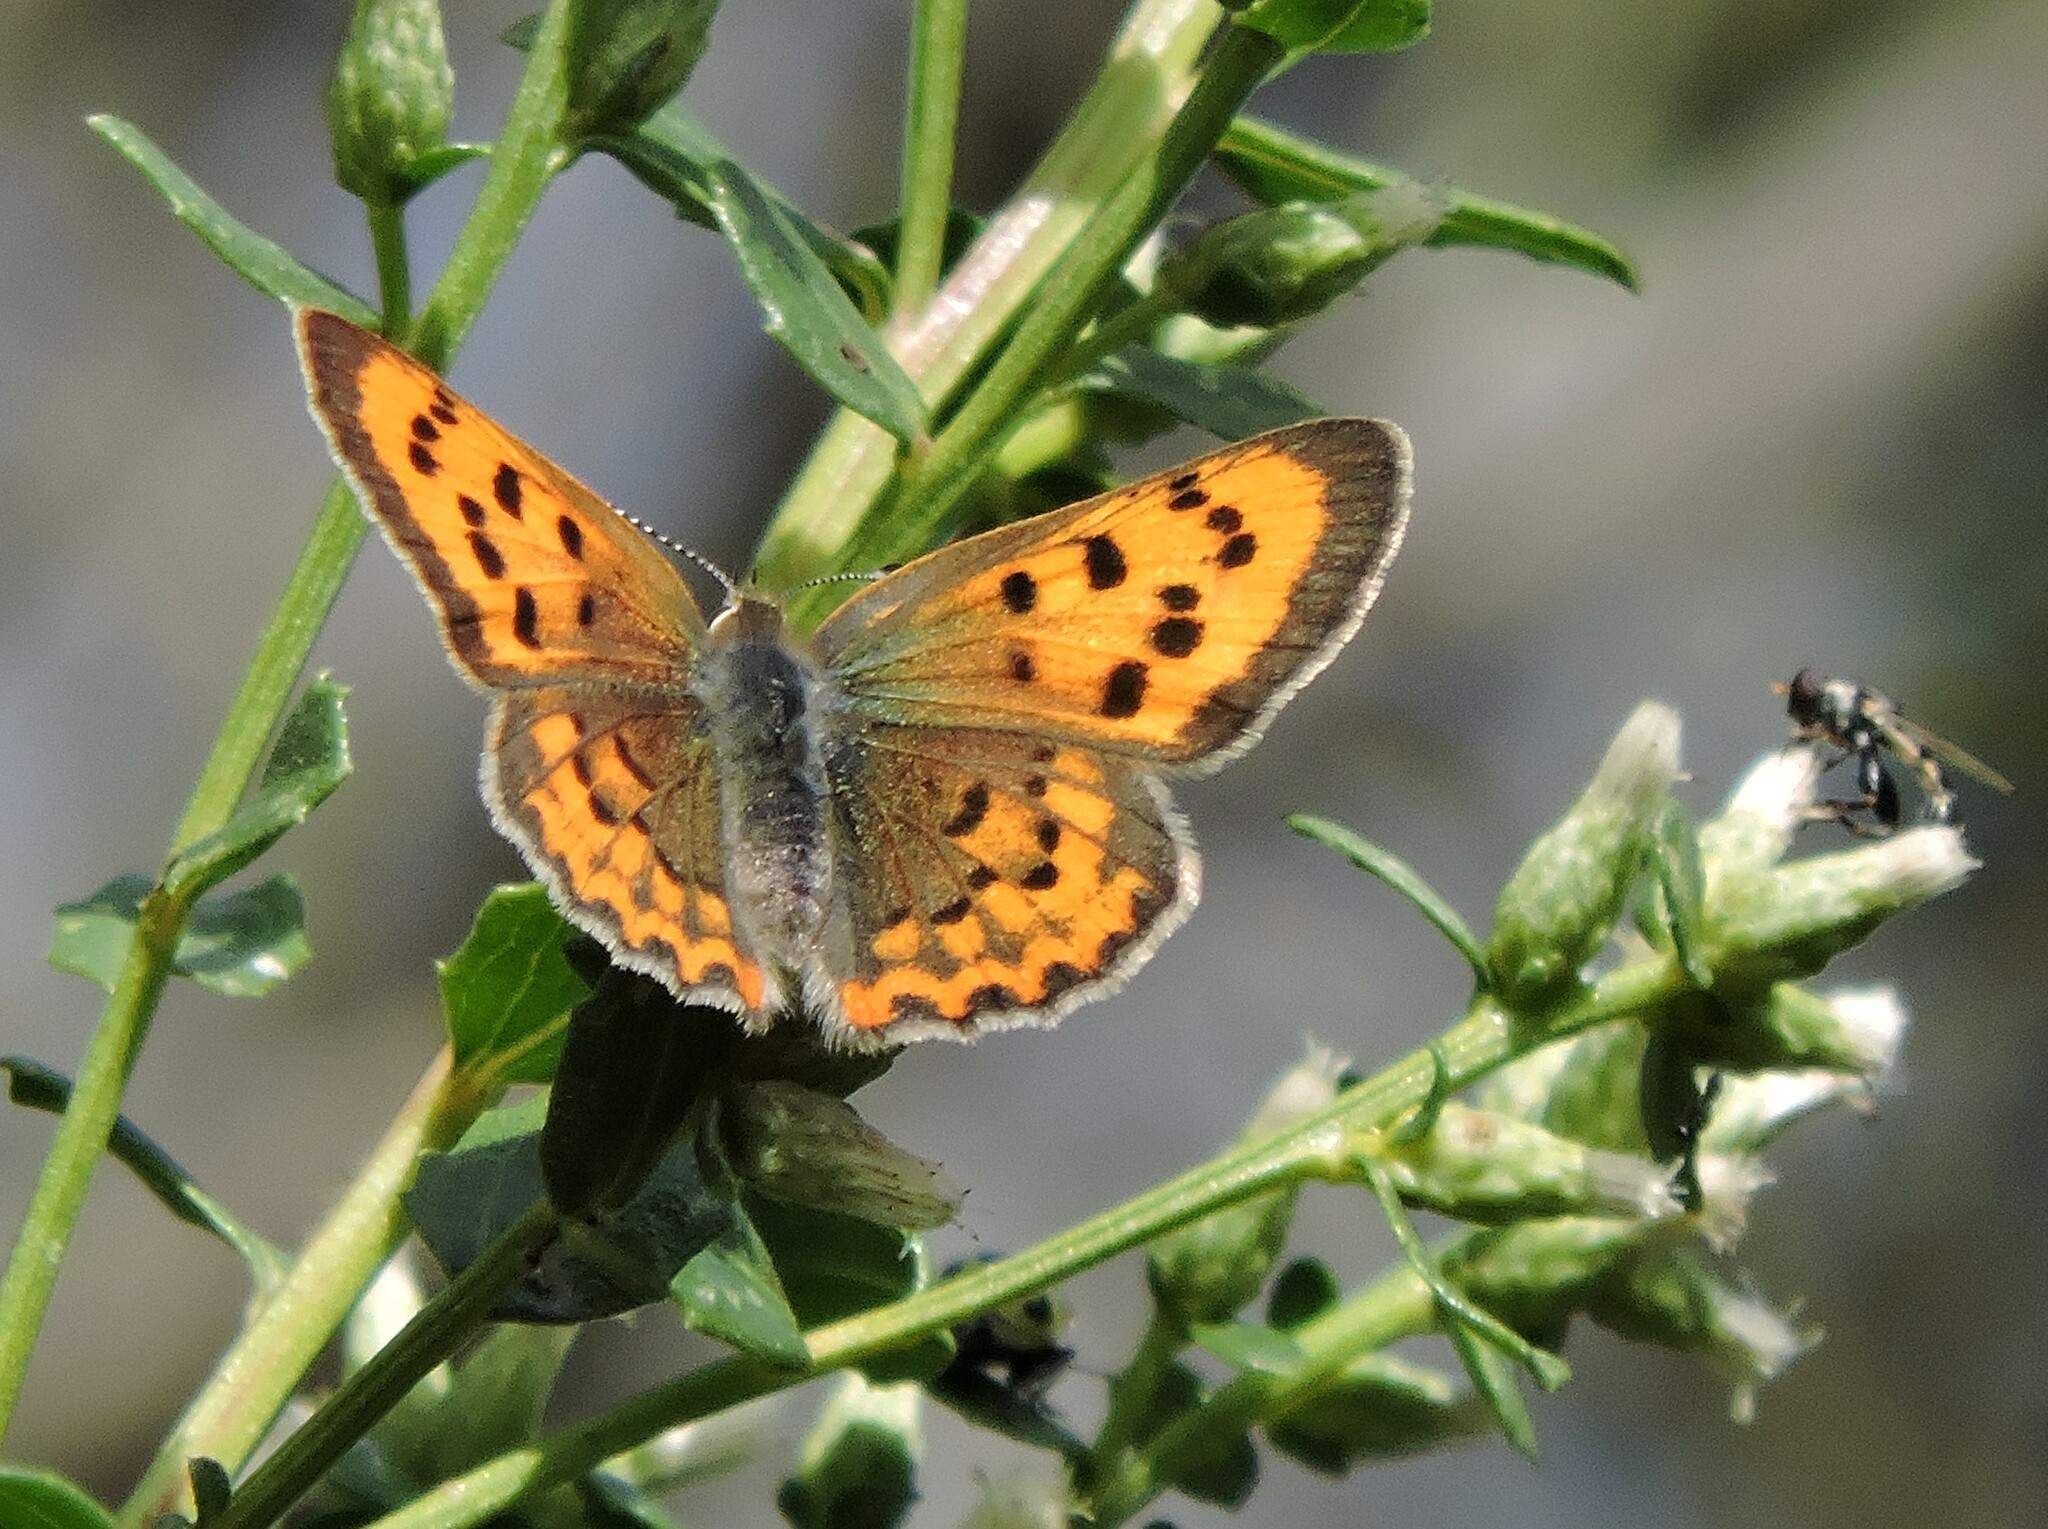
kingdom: Animalia
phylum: Arthropoda
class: Insecta
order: Lepidoptera
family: Lycaenidae
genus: Tharsalea
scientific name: Tharsalea helloides
